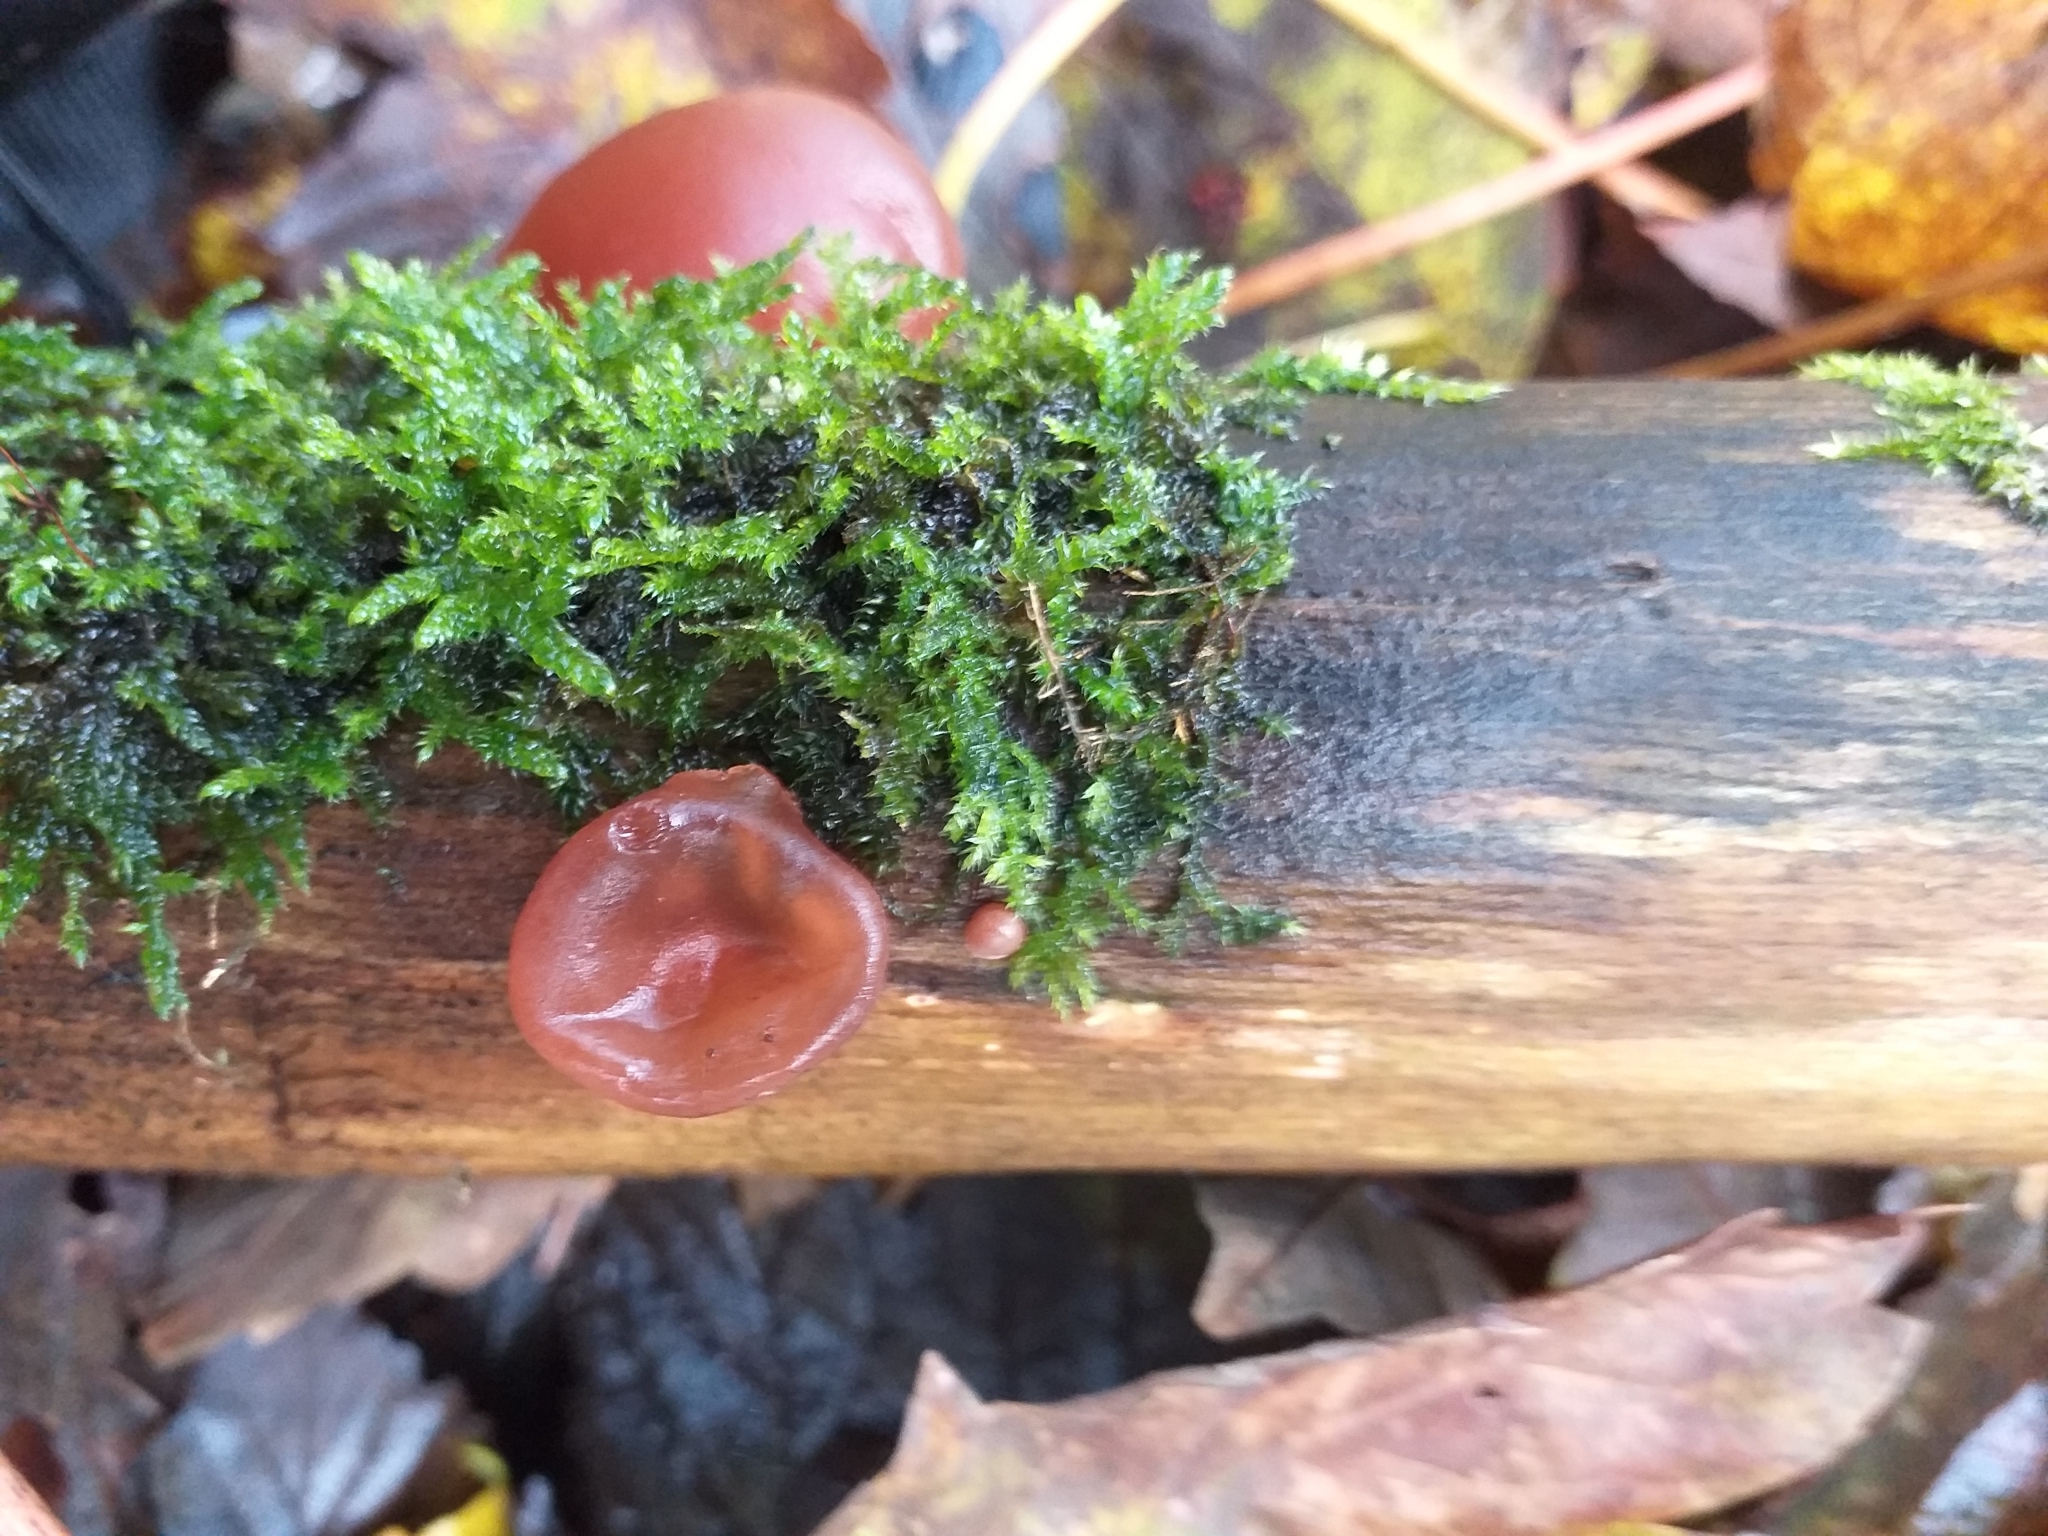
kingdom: Fungi
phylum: Basidiomycota
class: Agaricomycetes
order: Auriculariales
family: Auriculariaceae
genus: Auricularia
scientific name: Auricularia auricula-judae
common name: Jelly ear
